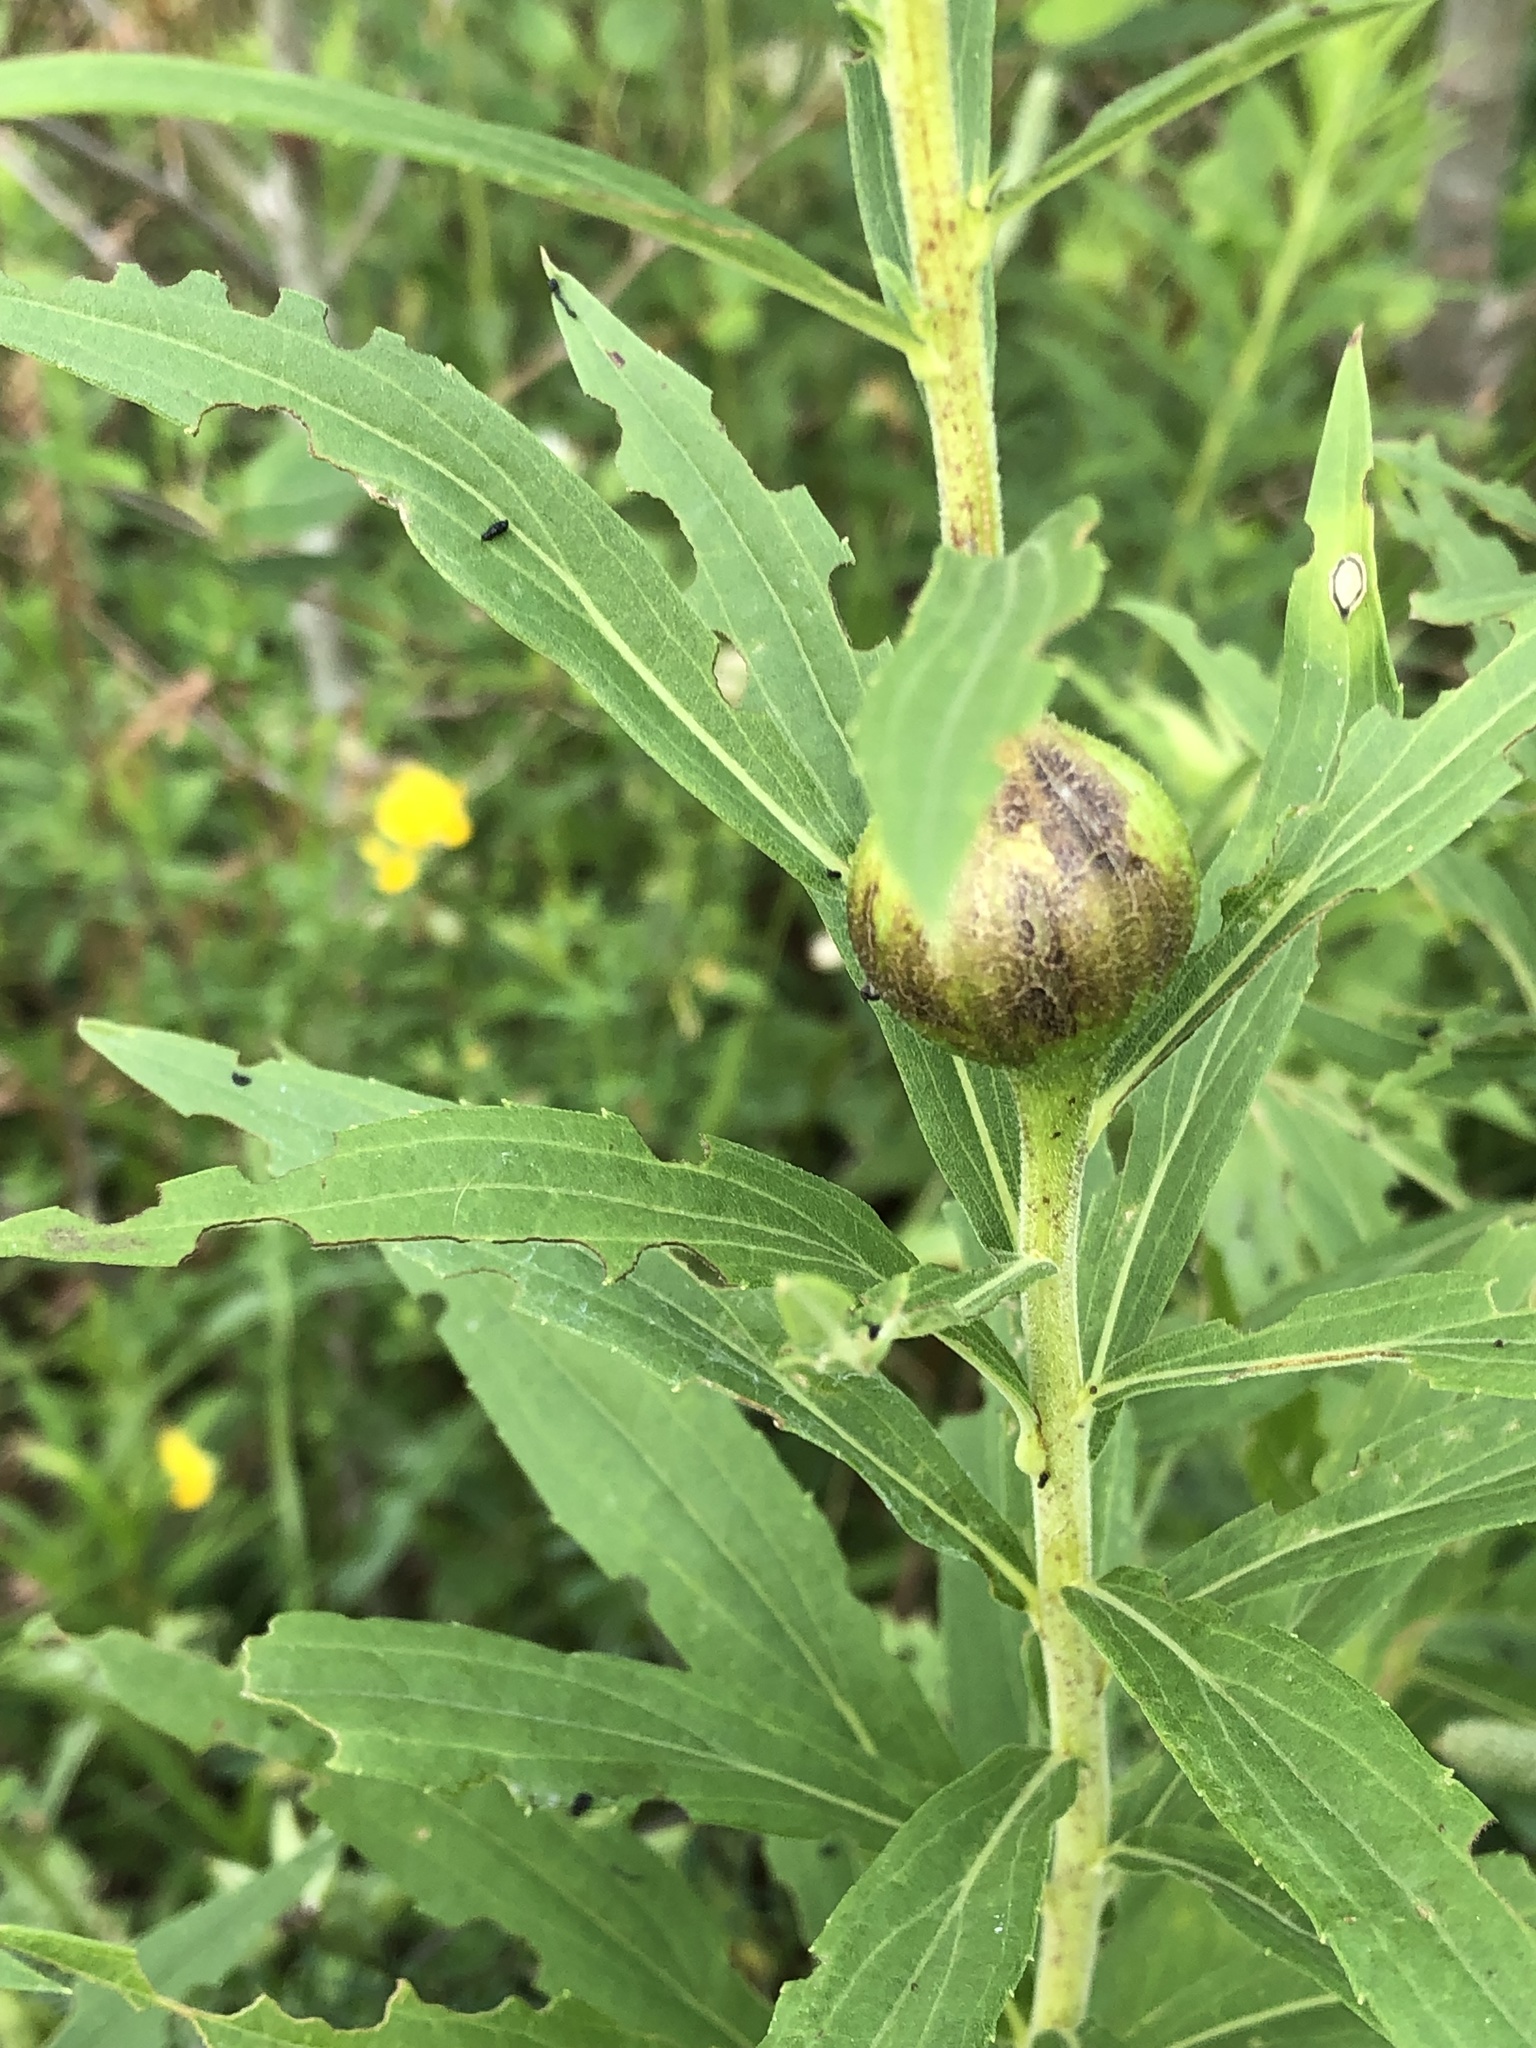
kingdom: Animalia
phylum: Arthropoda
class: Insecta
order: Diptera
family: Tephritidae
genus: Eurosta
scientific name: Eurosta solidaginis
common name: Goldenrod gall fly
